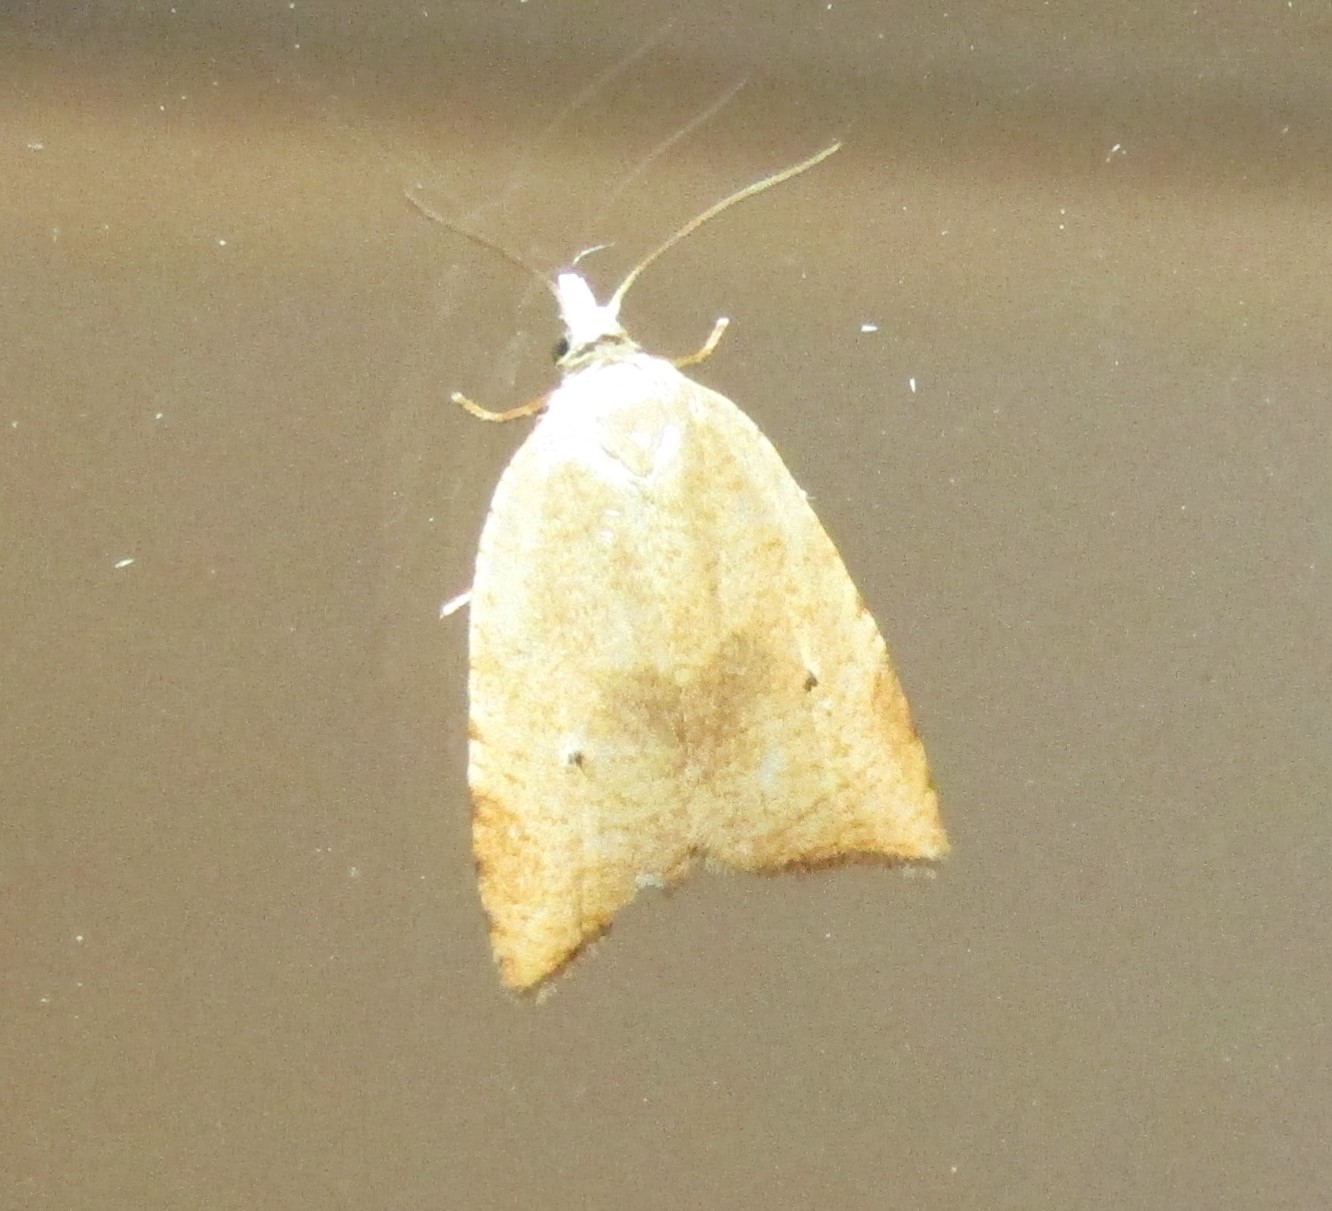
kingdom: Animalia
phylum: Arthropoda
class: Insecta
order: Lepidoptera
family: Tortricidae
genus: Coelostathma
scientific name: Coelostathma discopunctana
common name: Batman moth
